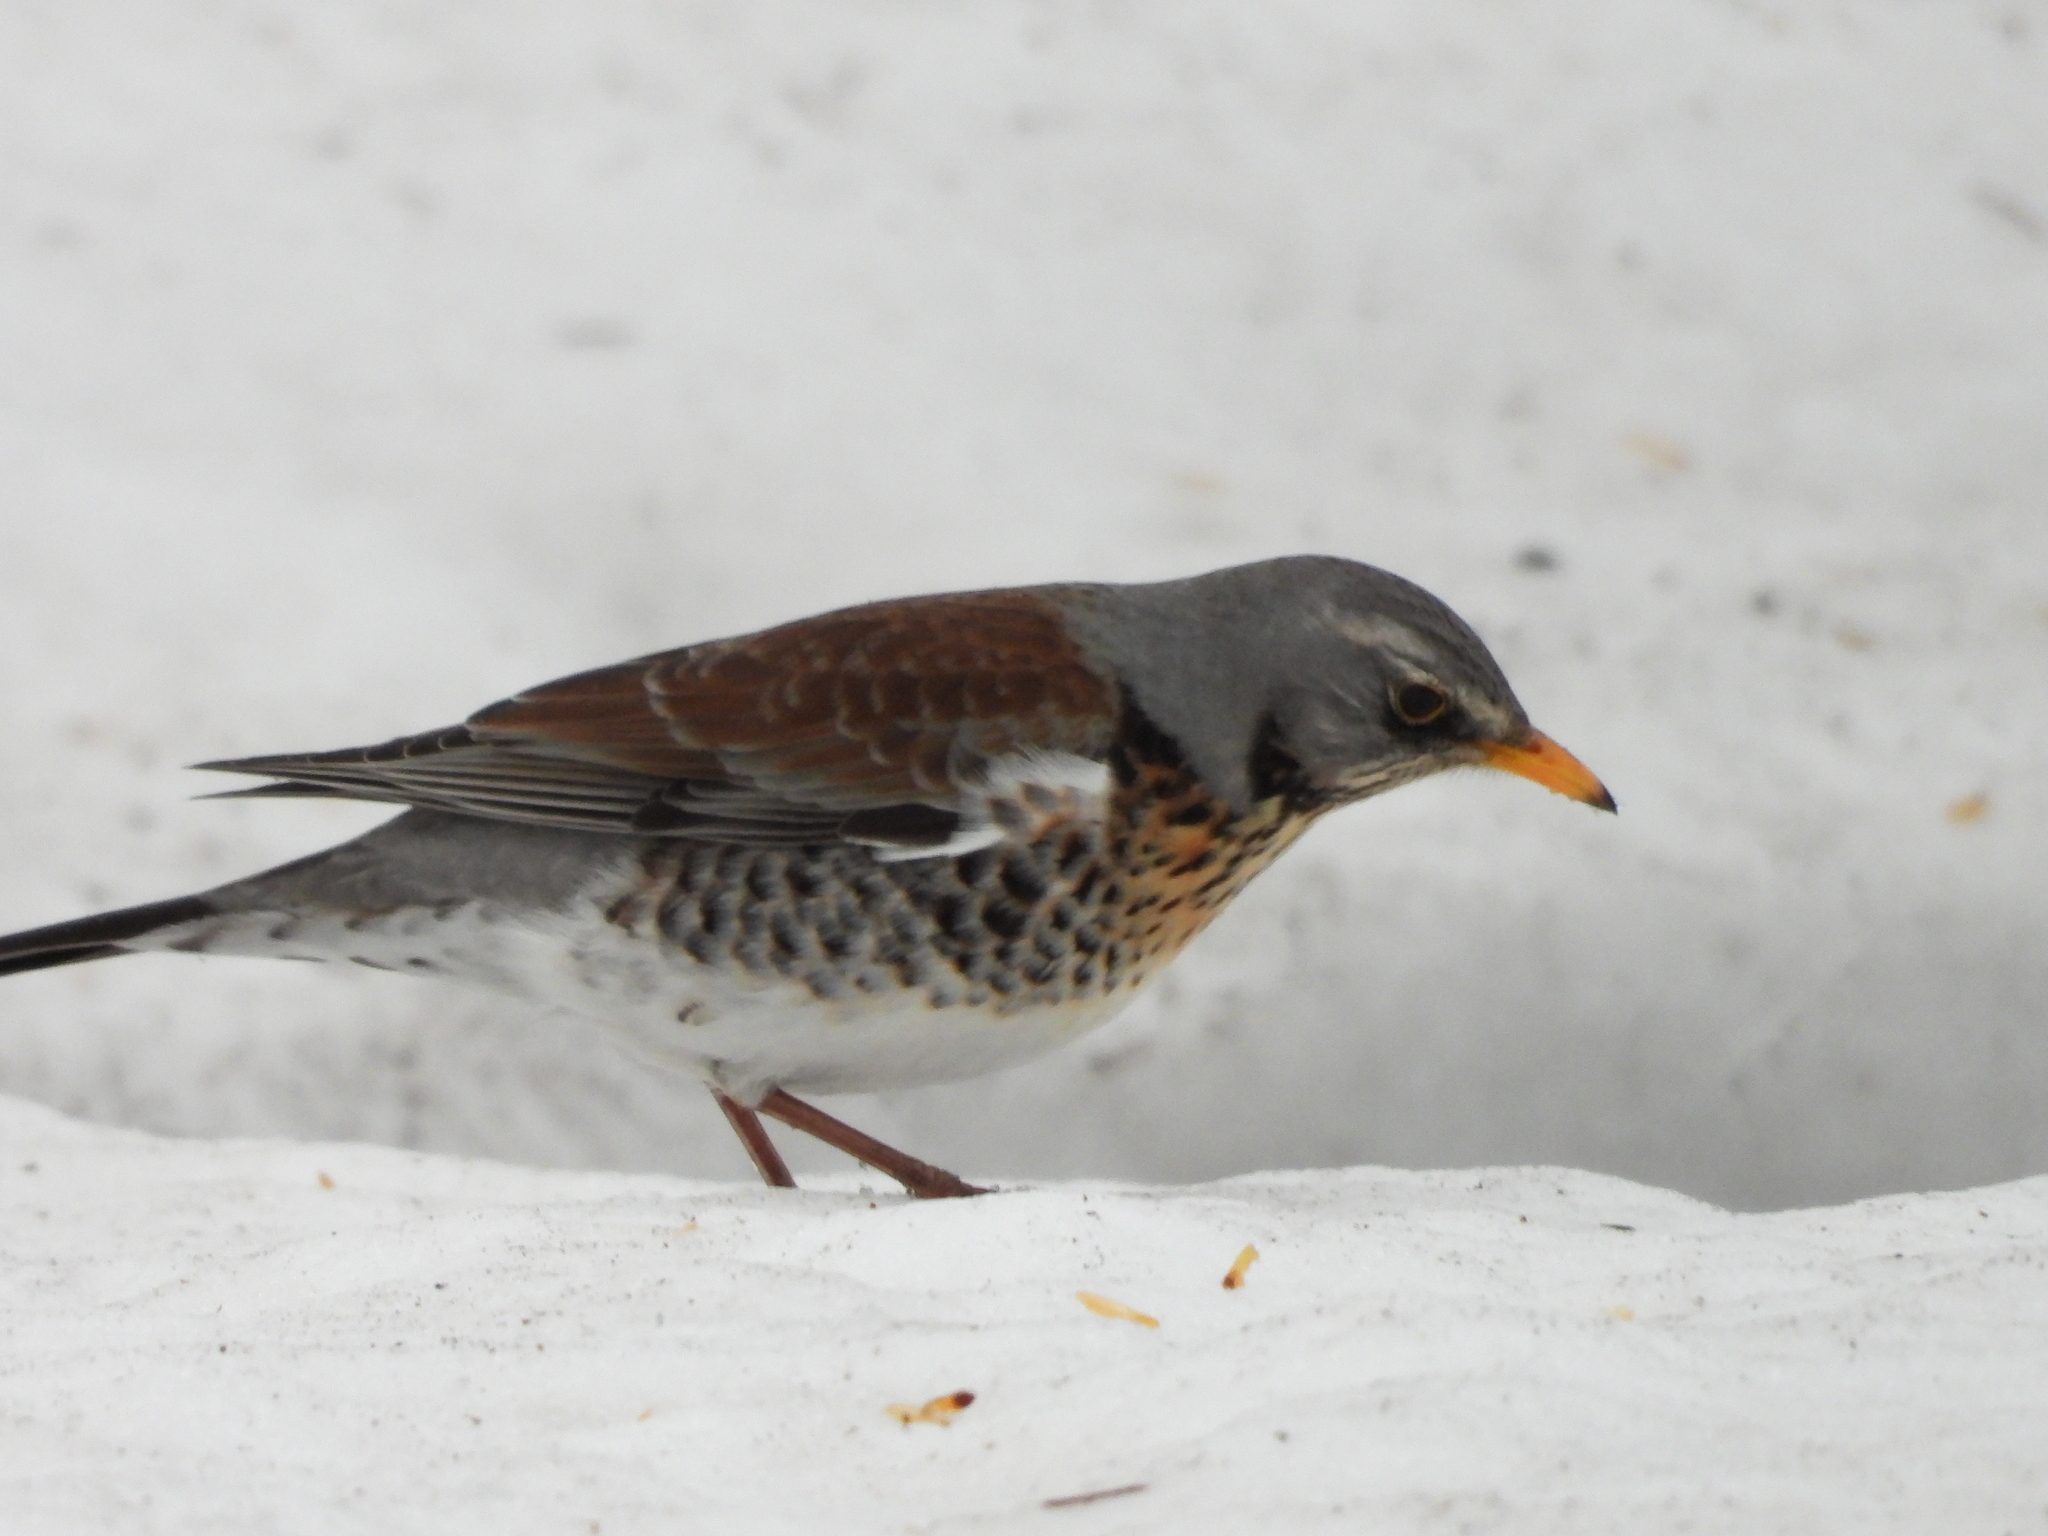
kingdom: Animalia
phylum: Chordata
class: Aves
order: Passeriformes
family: Turdidae
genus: Turdus
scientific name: Turdus pilaris
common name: Fieldfare
